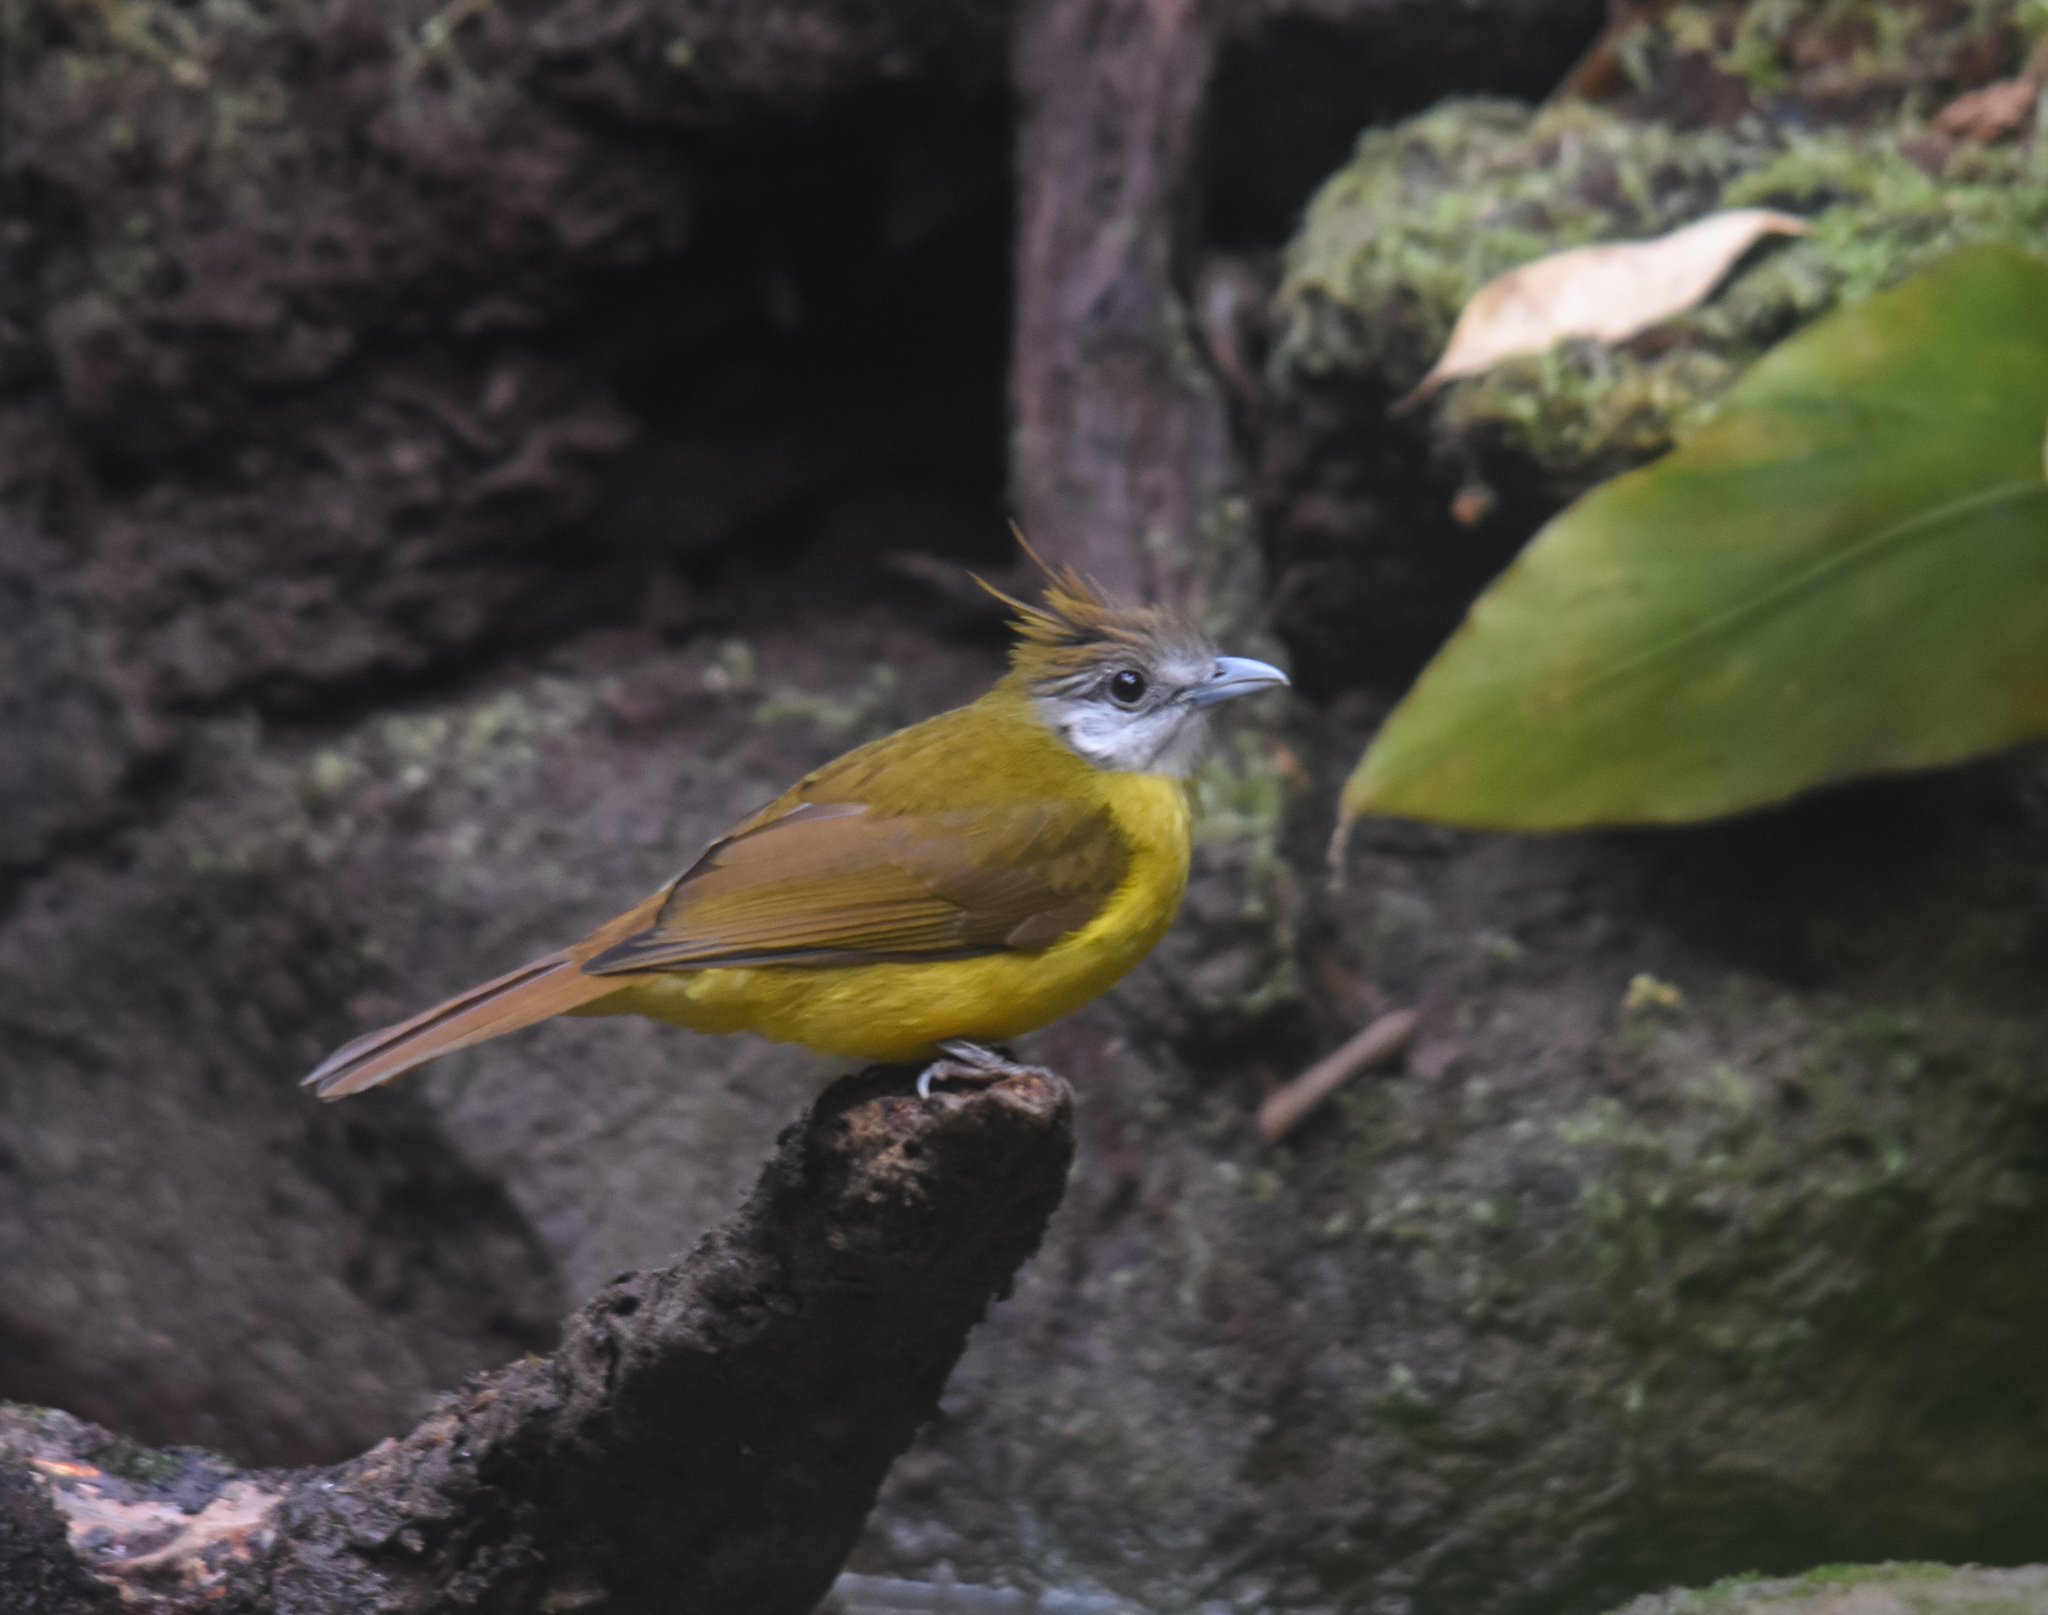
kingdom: Animalia
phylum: Chordata
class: Aves
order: Passeriformes
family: Pycnonotidae
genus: Alophoixus
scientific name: Alophoixus flaveolus
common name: White-throated bulbul
